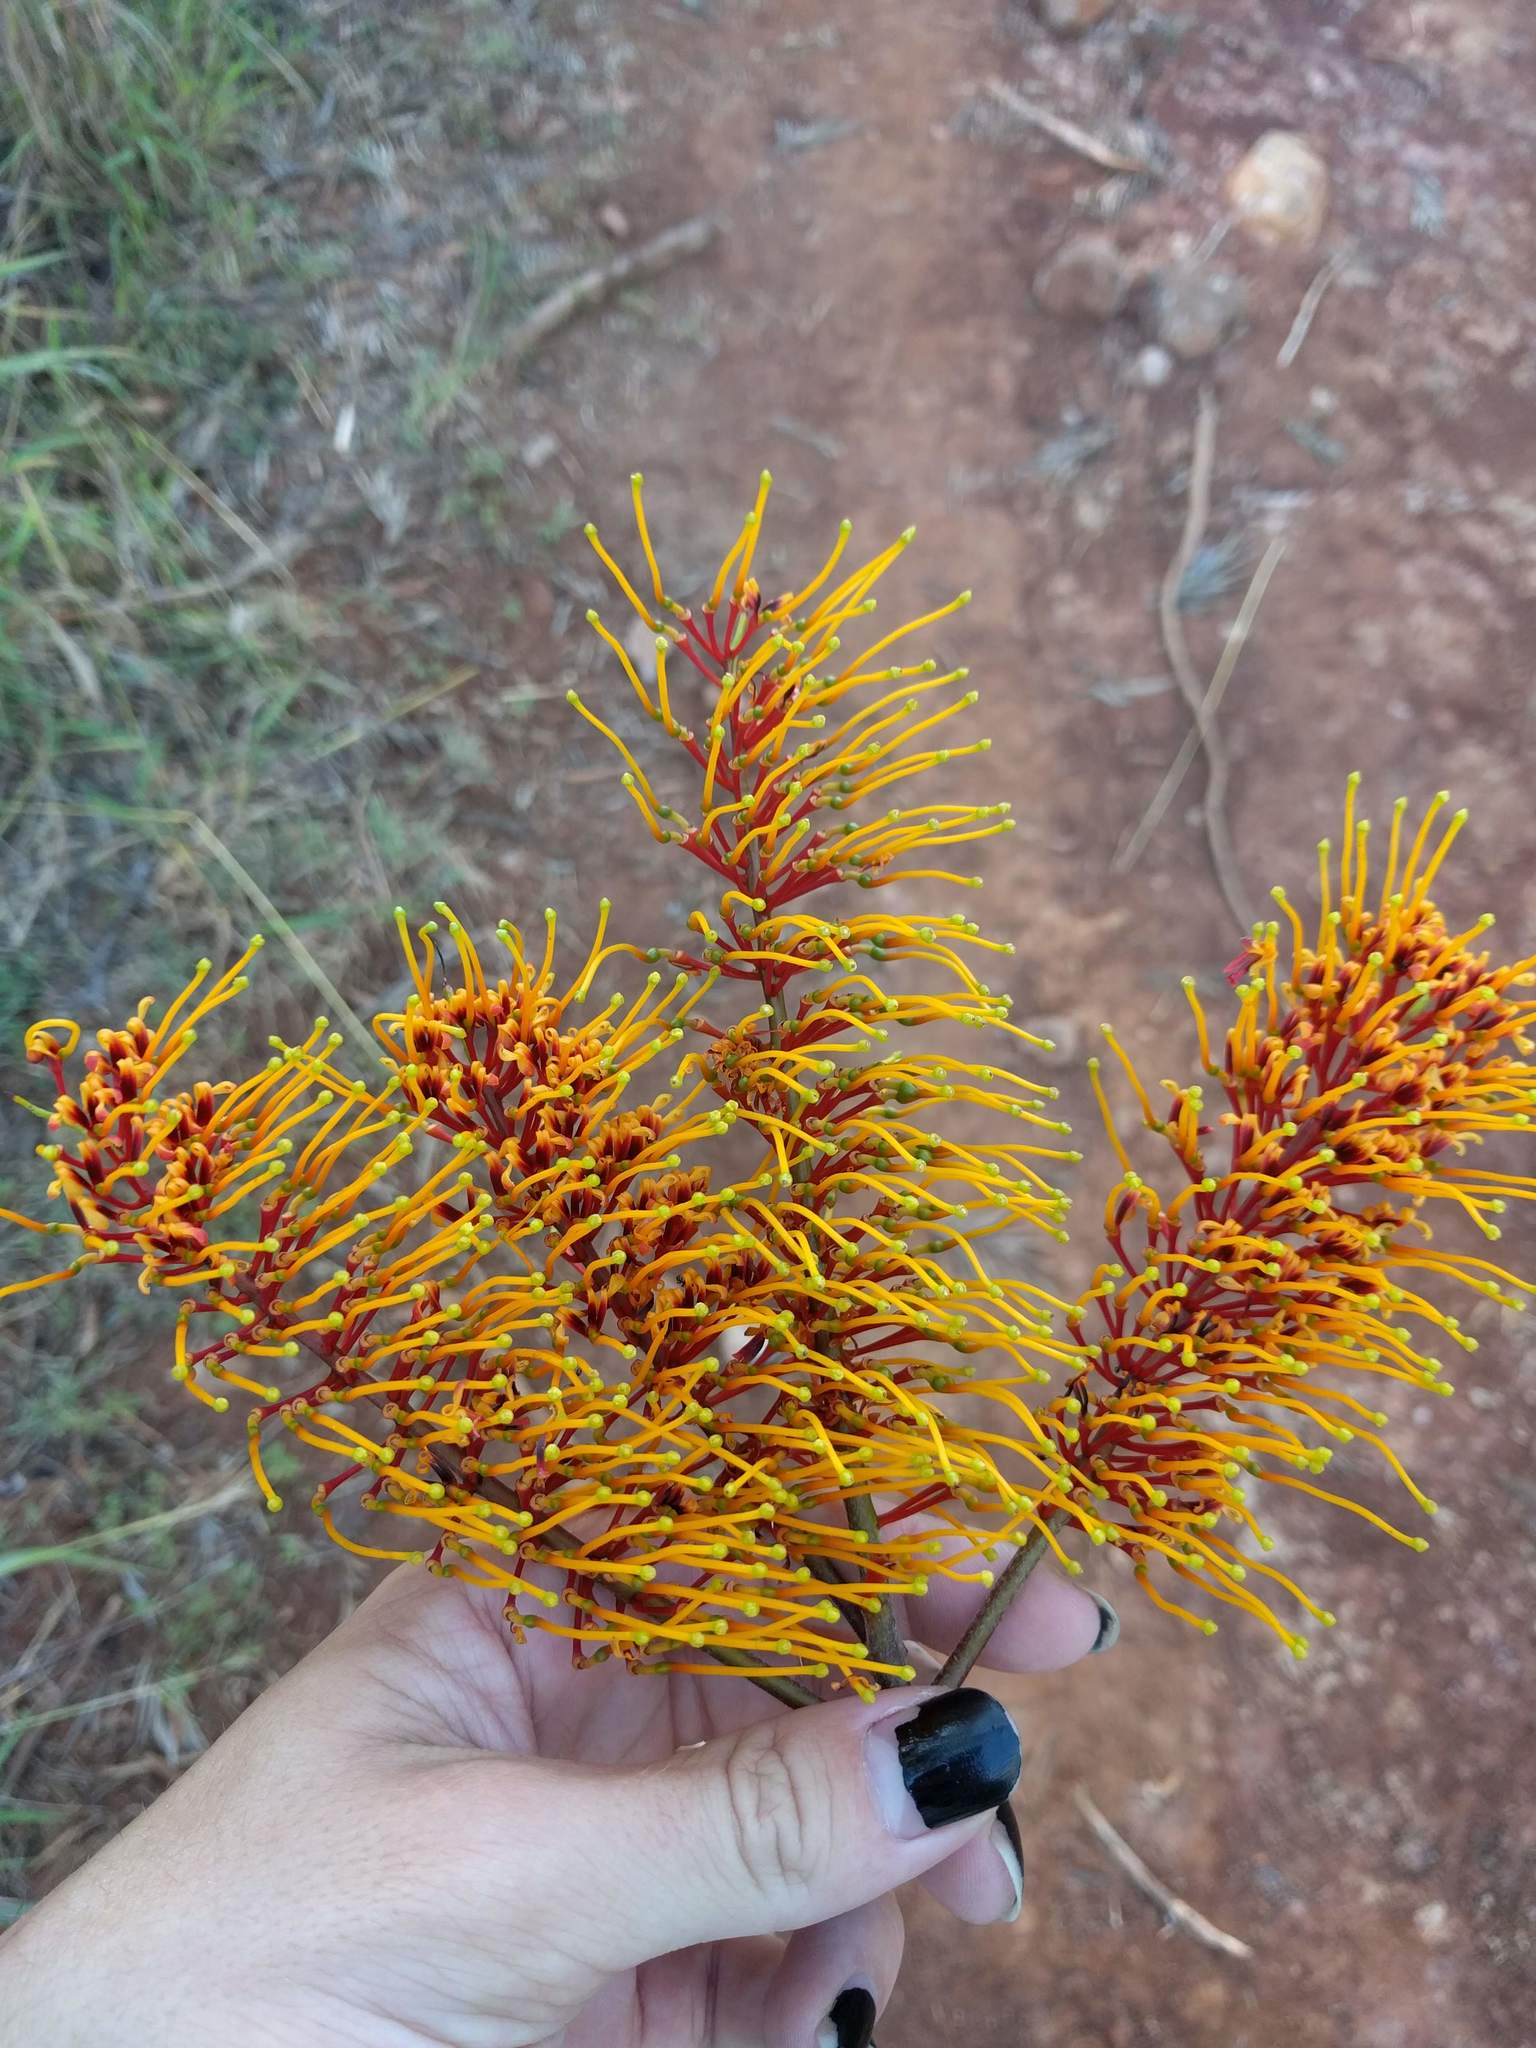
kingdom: Plantae
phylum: Tracheophyta
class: Magnoliopsida
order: Proteales
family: Proteaceae
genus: Grevillea
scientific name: Grevillea robusta
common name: Silkoak
